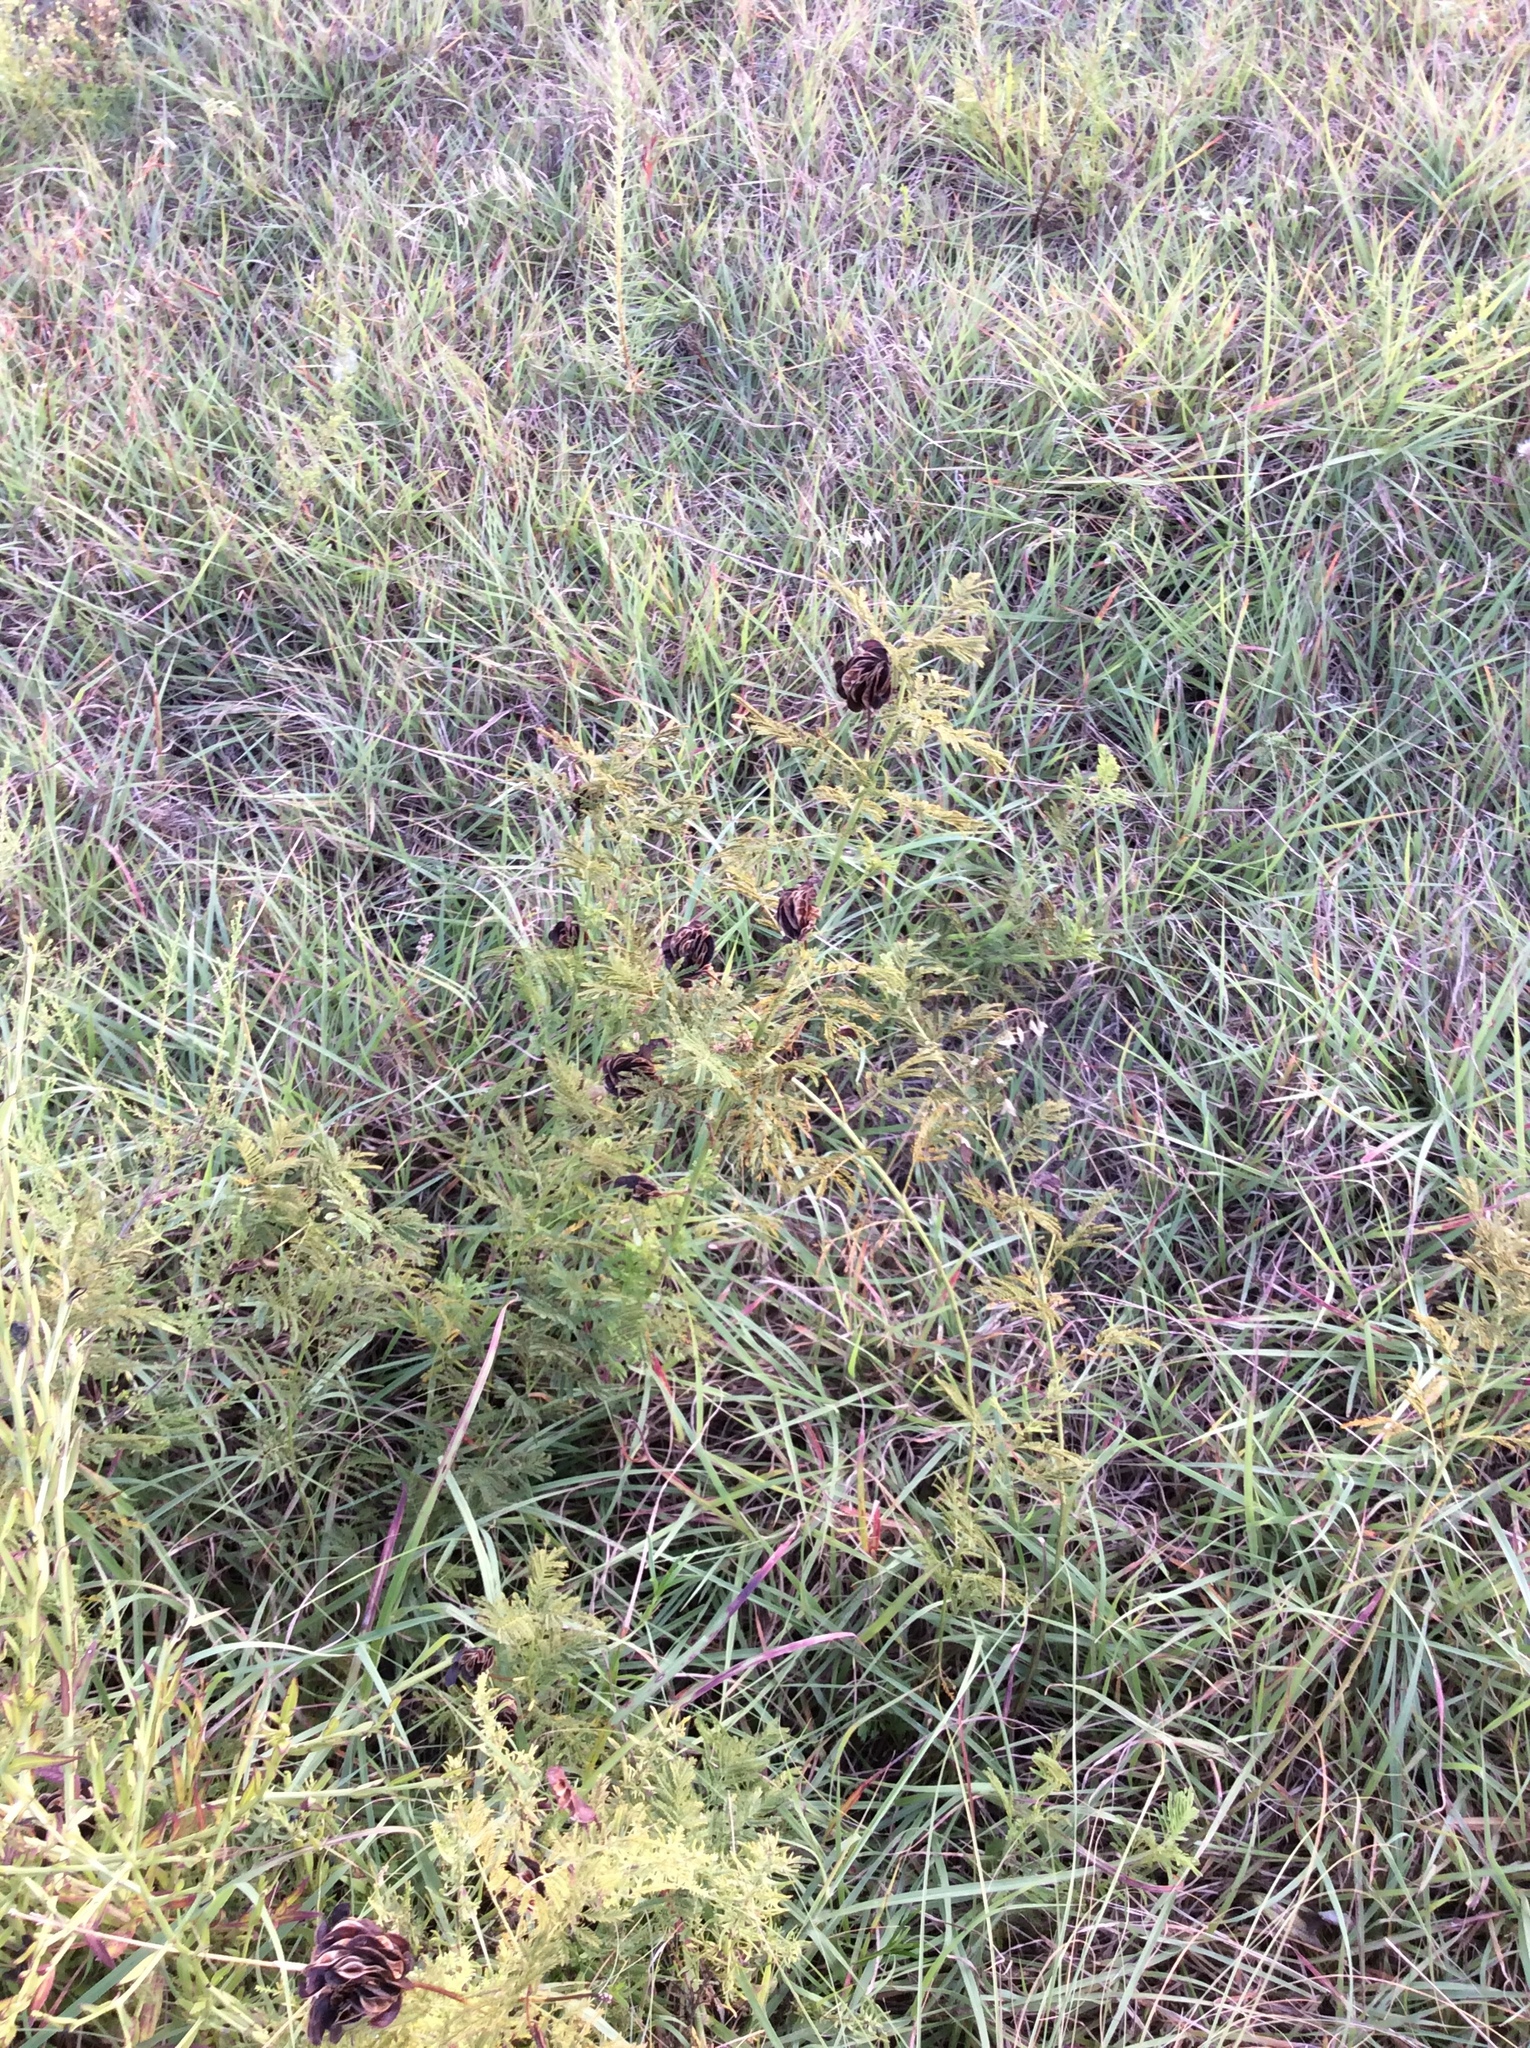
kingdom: Plantae
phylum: Tracheophyta
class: Magnoliopsida
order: Fabales
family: Fabaceae
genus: Desmanthus
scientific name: Desmanthus illinoensis
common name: Illinois bundle-flower
